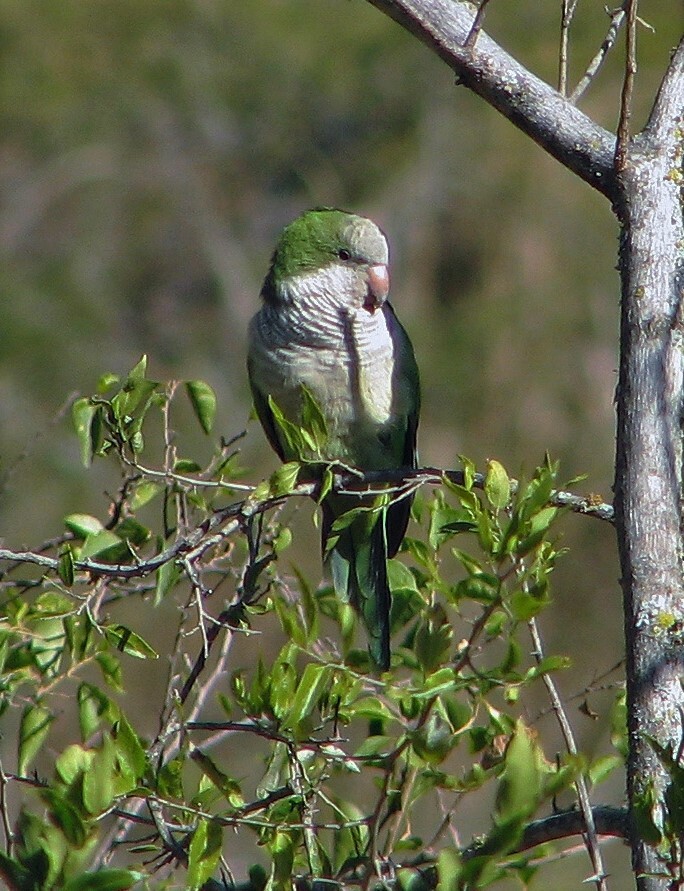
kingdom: Animalia
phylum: Chordata
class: Aves
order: Psittaciformes
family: Psittacidae
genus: Myiopsitta
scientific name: Myiopsitta monachus
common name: Monk parakeet
